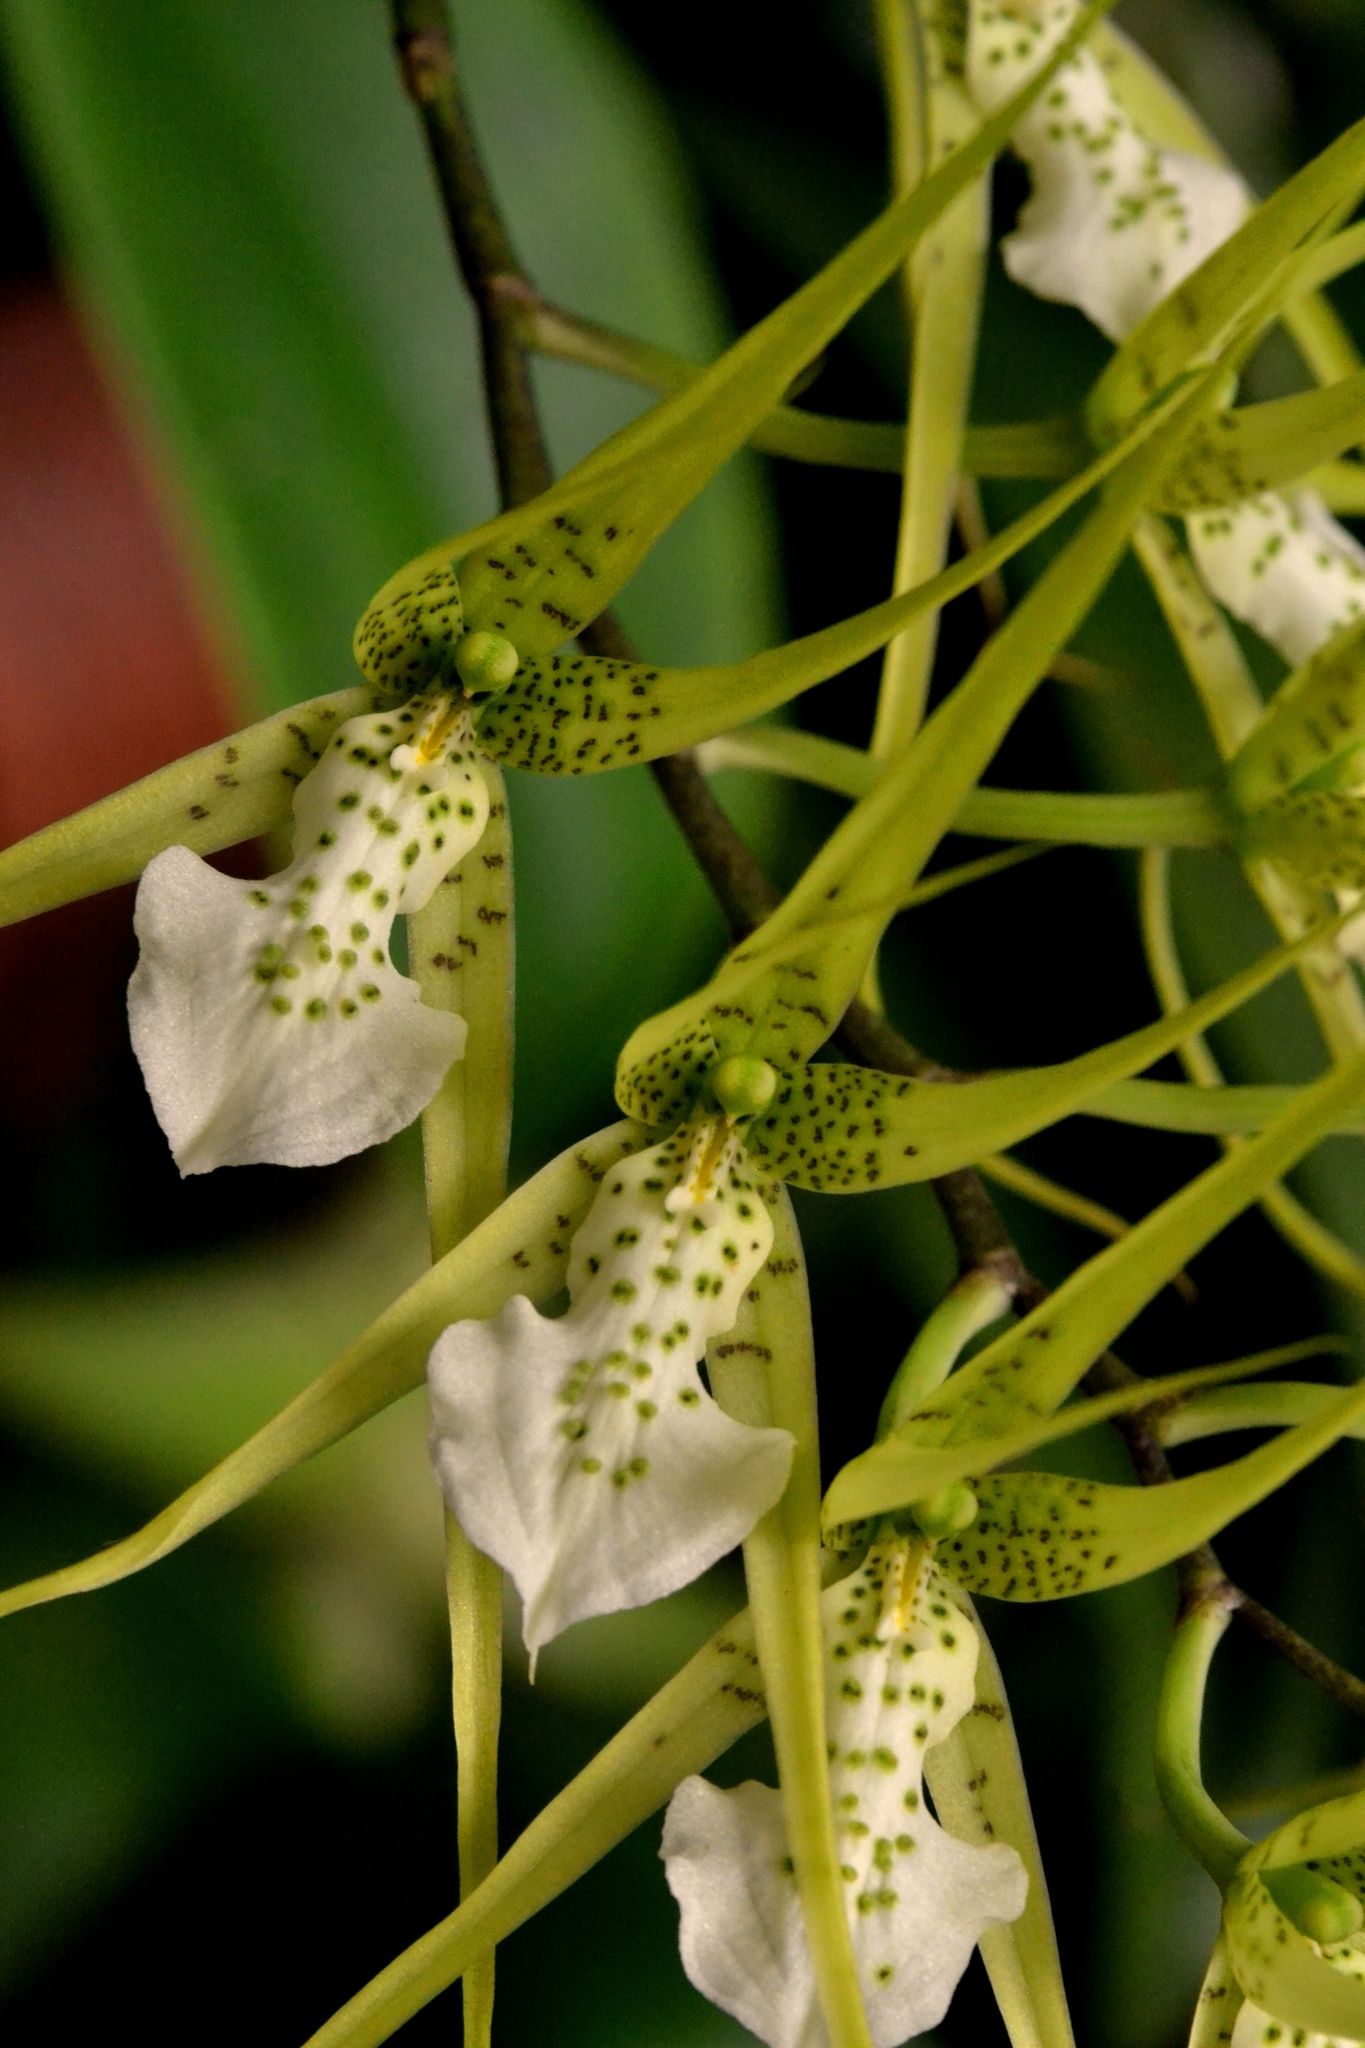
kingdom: Plantae
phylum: Tracheophyta
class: Liliopsida
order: Asparagales
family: Orchidaceae
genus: Brassia
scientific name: Brassia verrucosa
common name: Warty brassia
